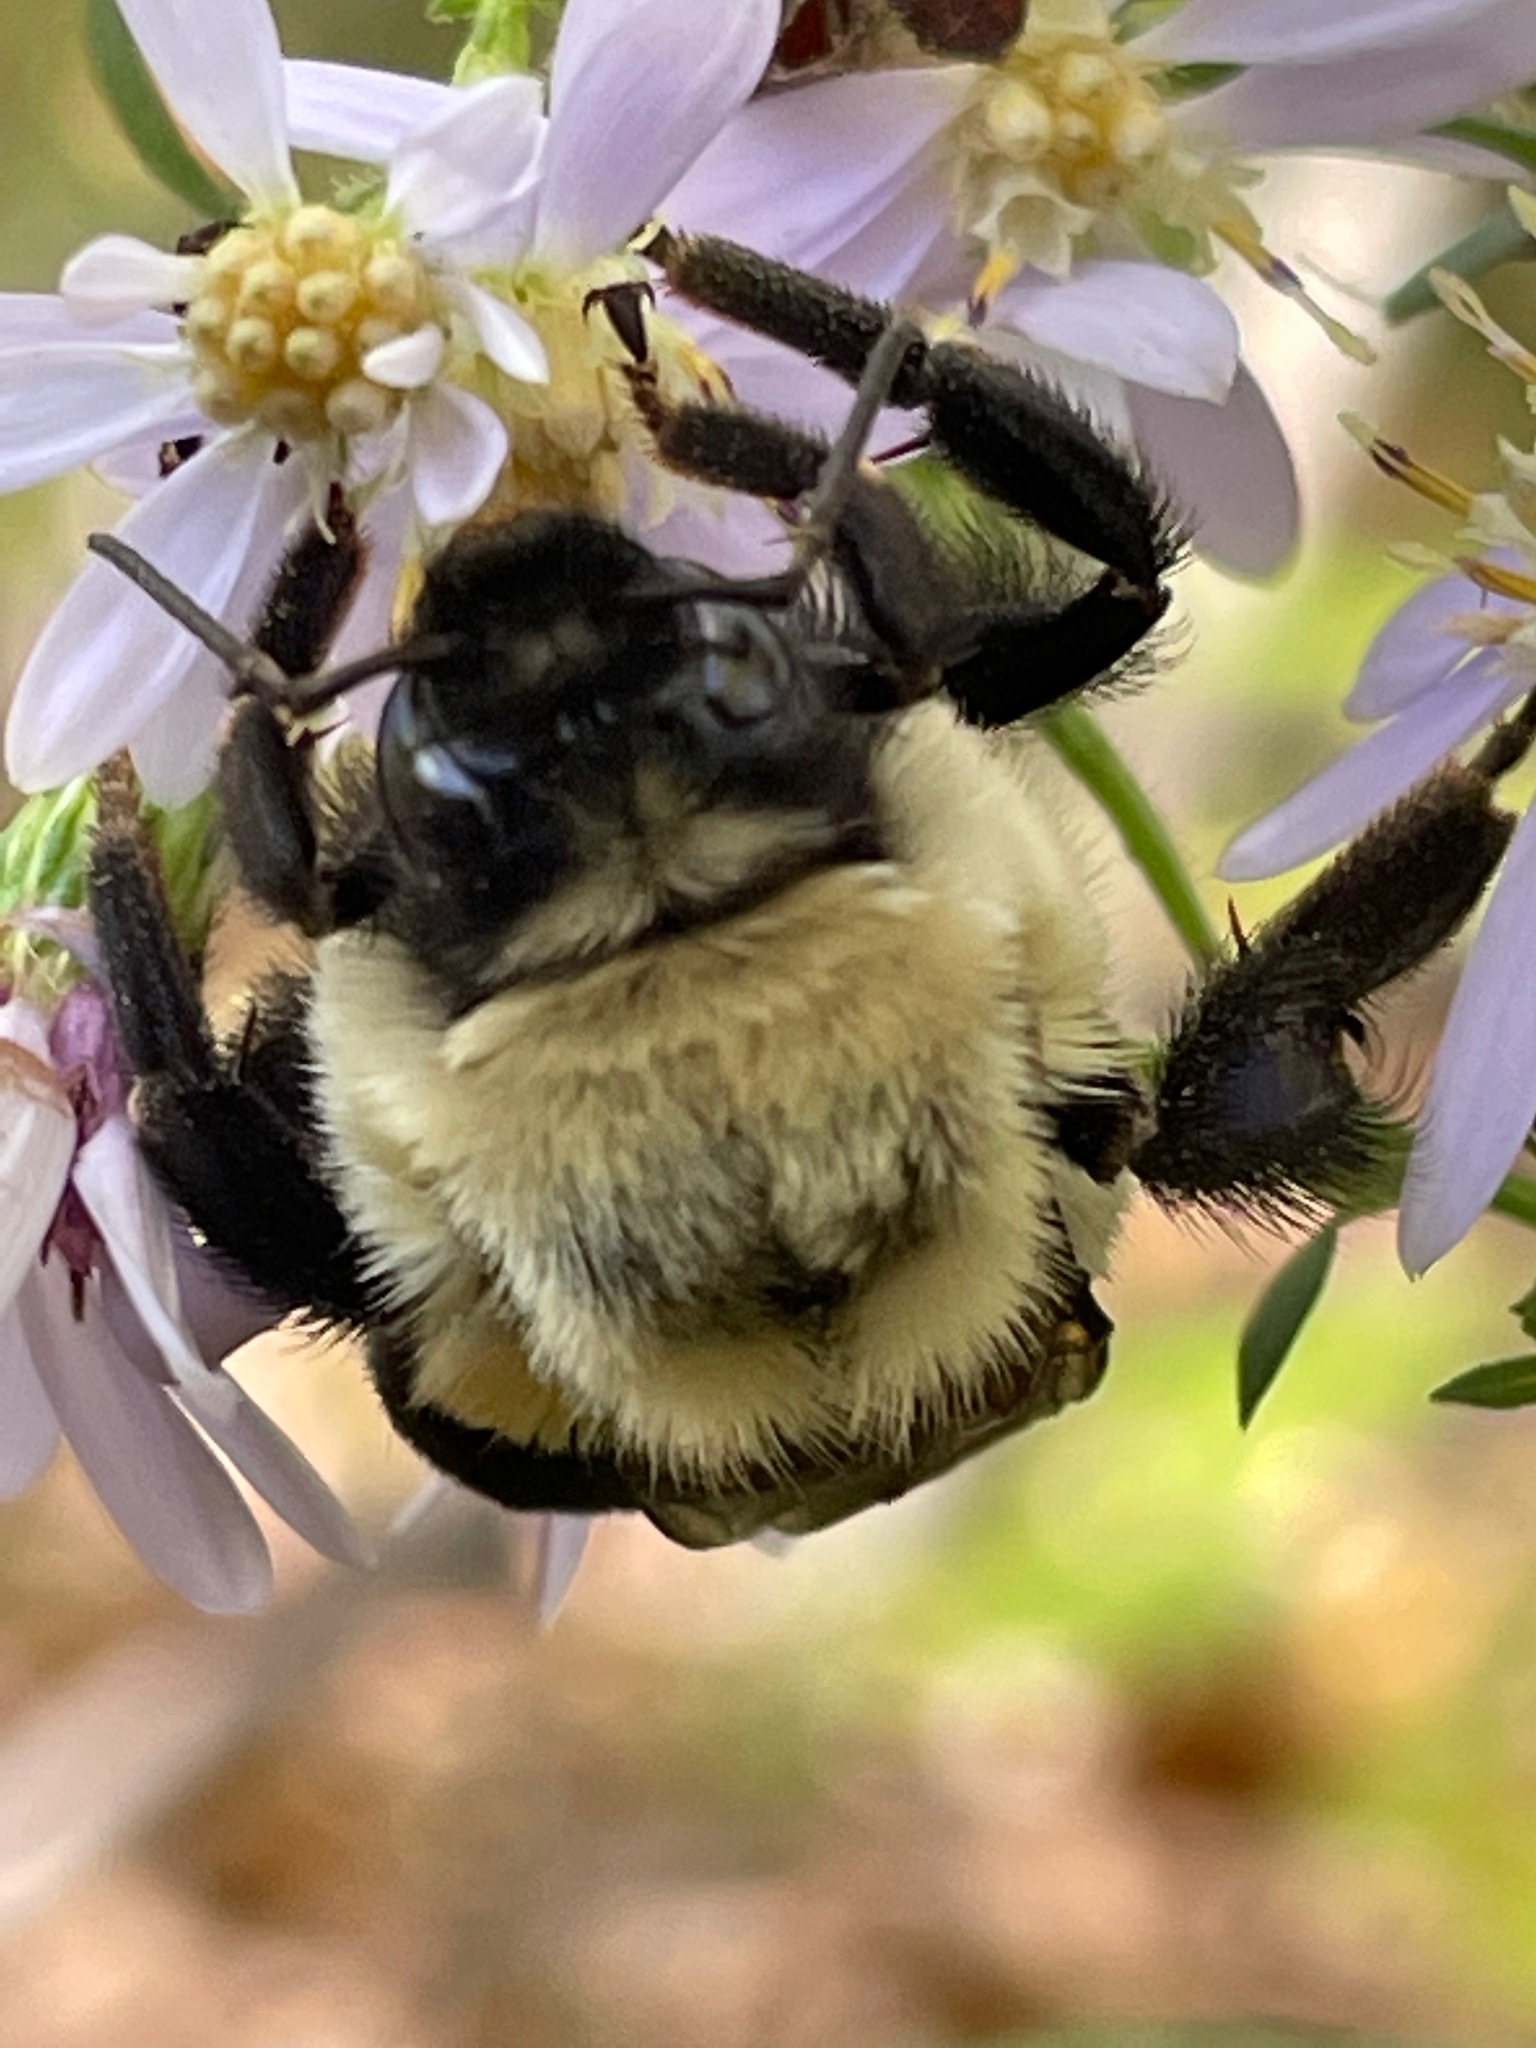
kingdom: Animalia
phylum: Arthropoda
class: Insecta
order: Hymenoptera
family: Apidae
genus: Bombus
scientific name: Bombus impatiens
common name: Common eastern bumble bee
